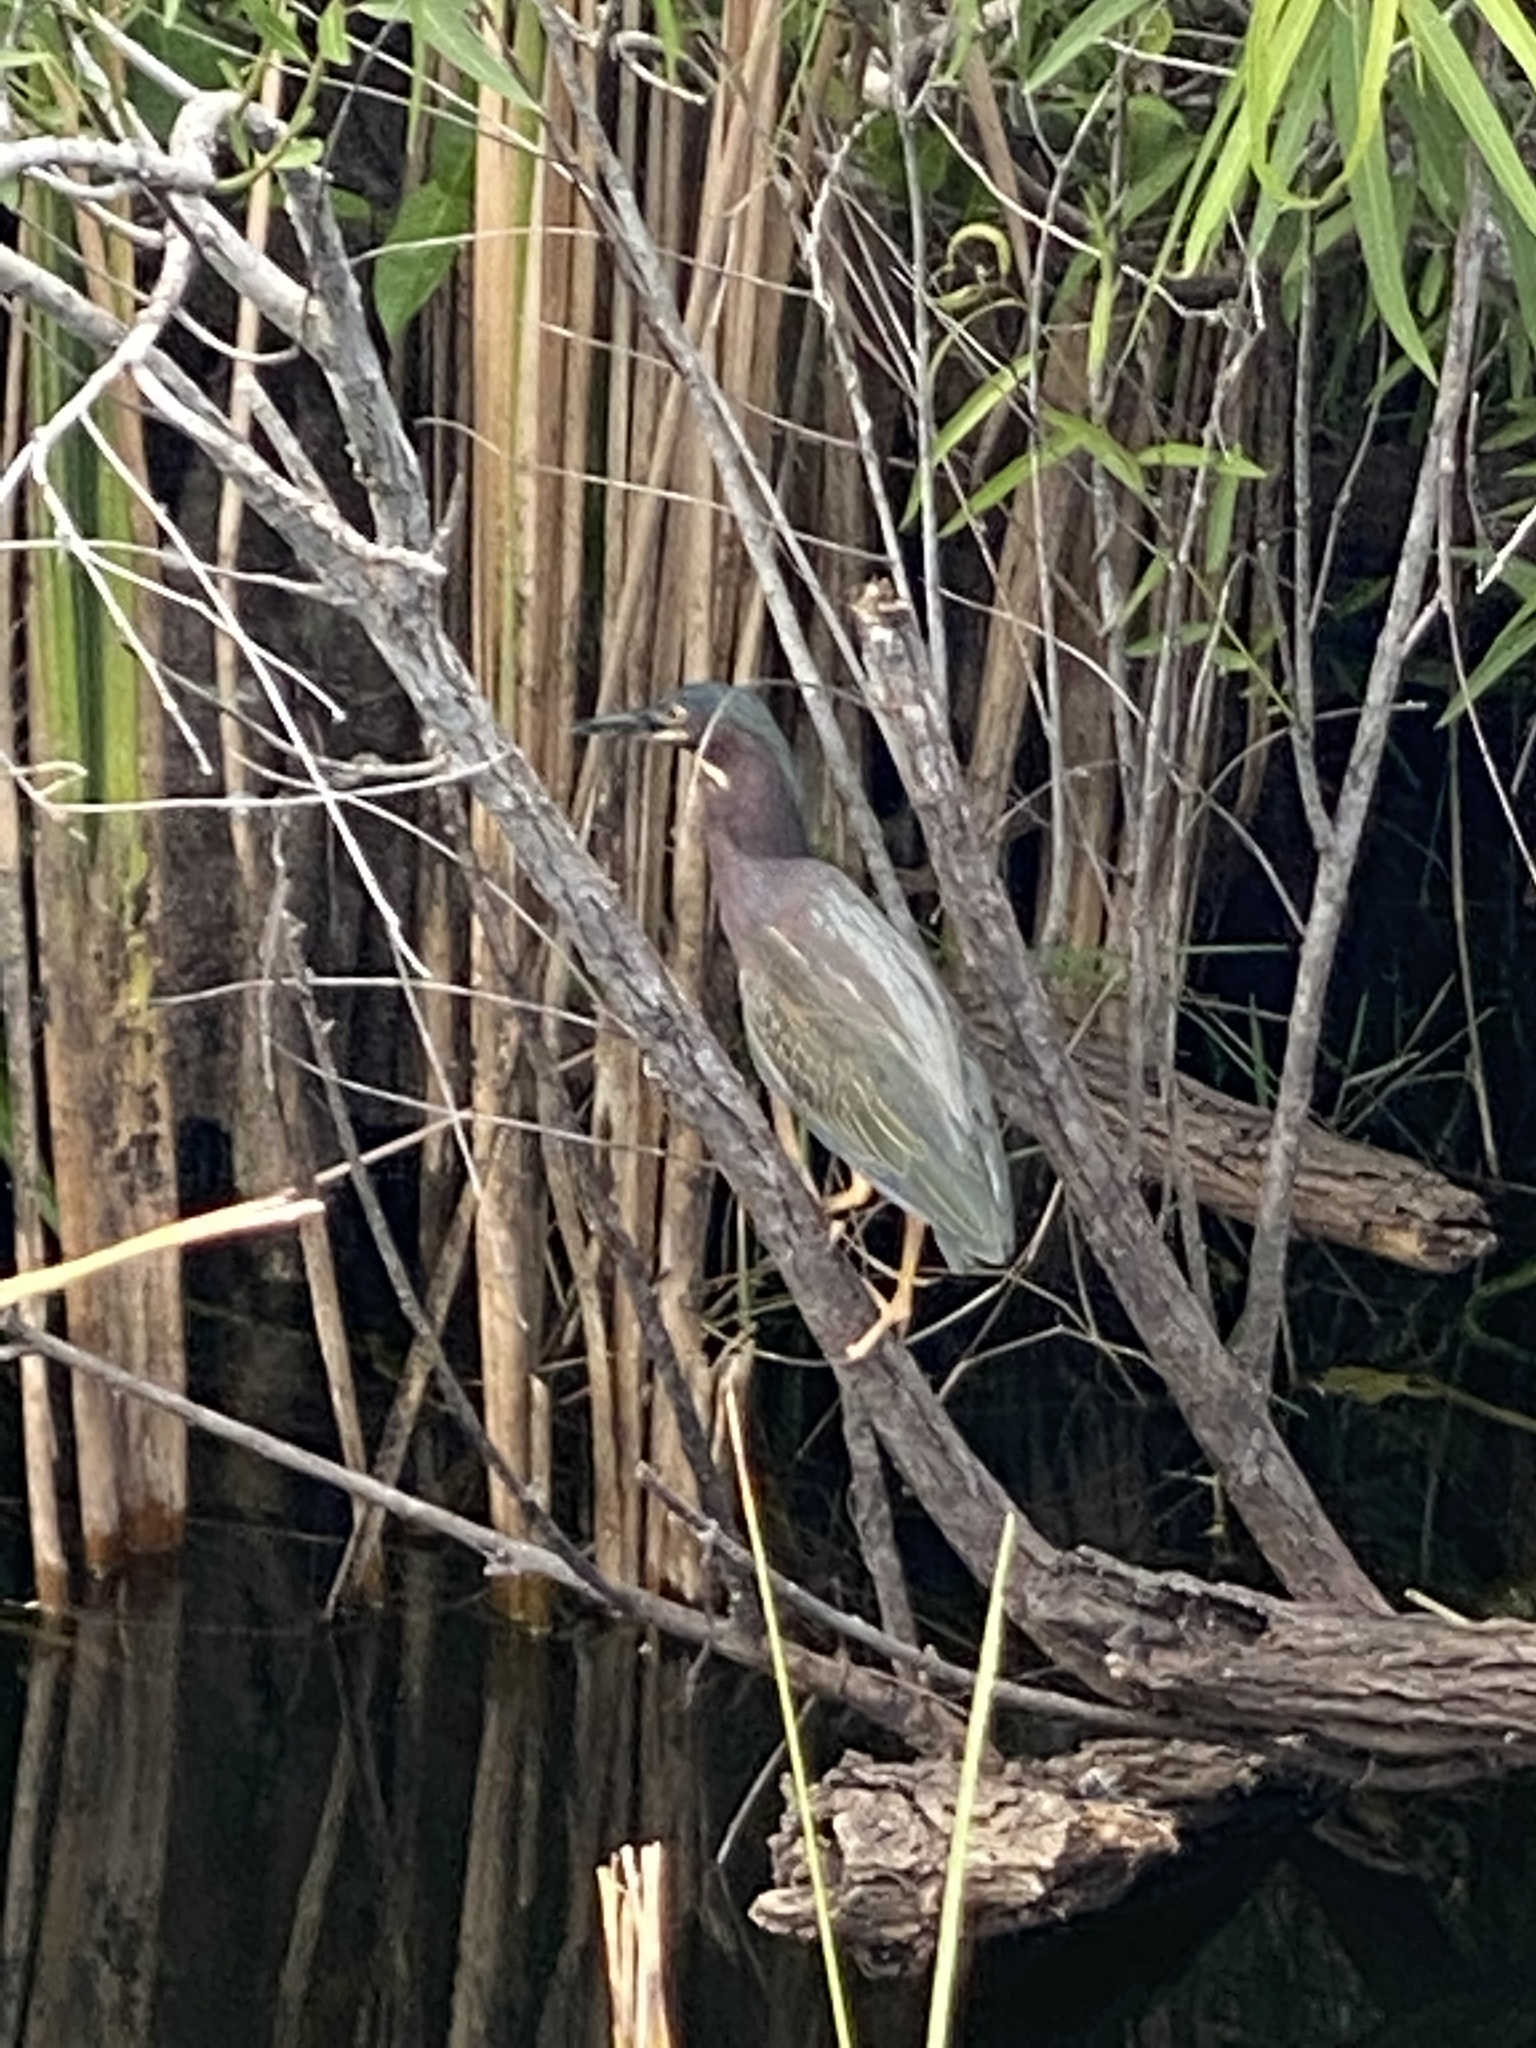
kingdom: Animalia
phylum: Chordata
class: Aves
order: Pelecaniformes
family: Ardeidae
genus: Butorides
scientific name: Butorides virescens
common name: Green heron
